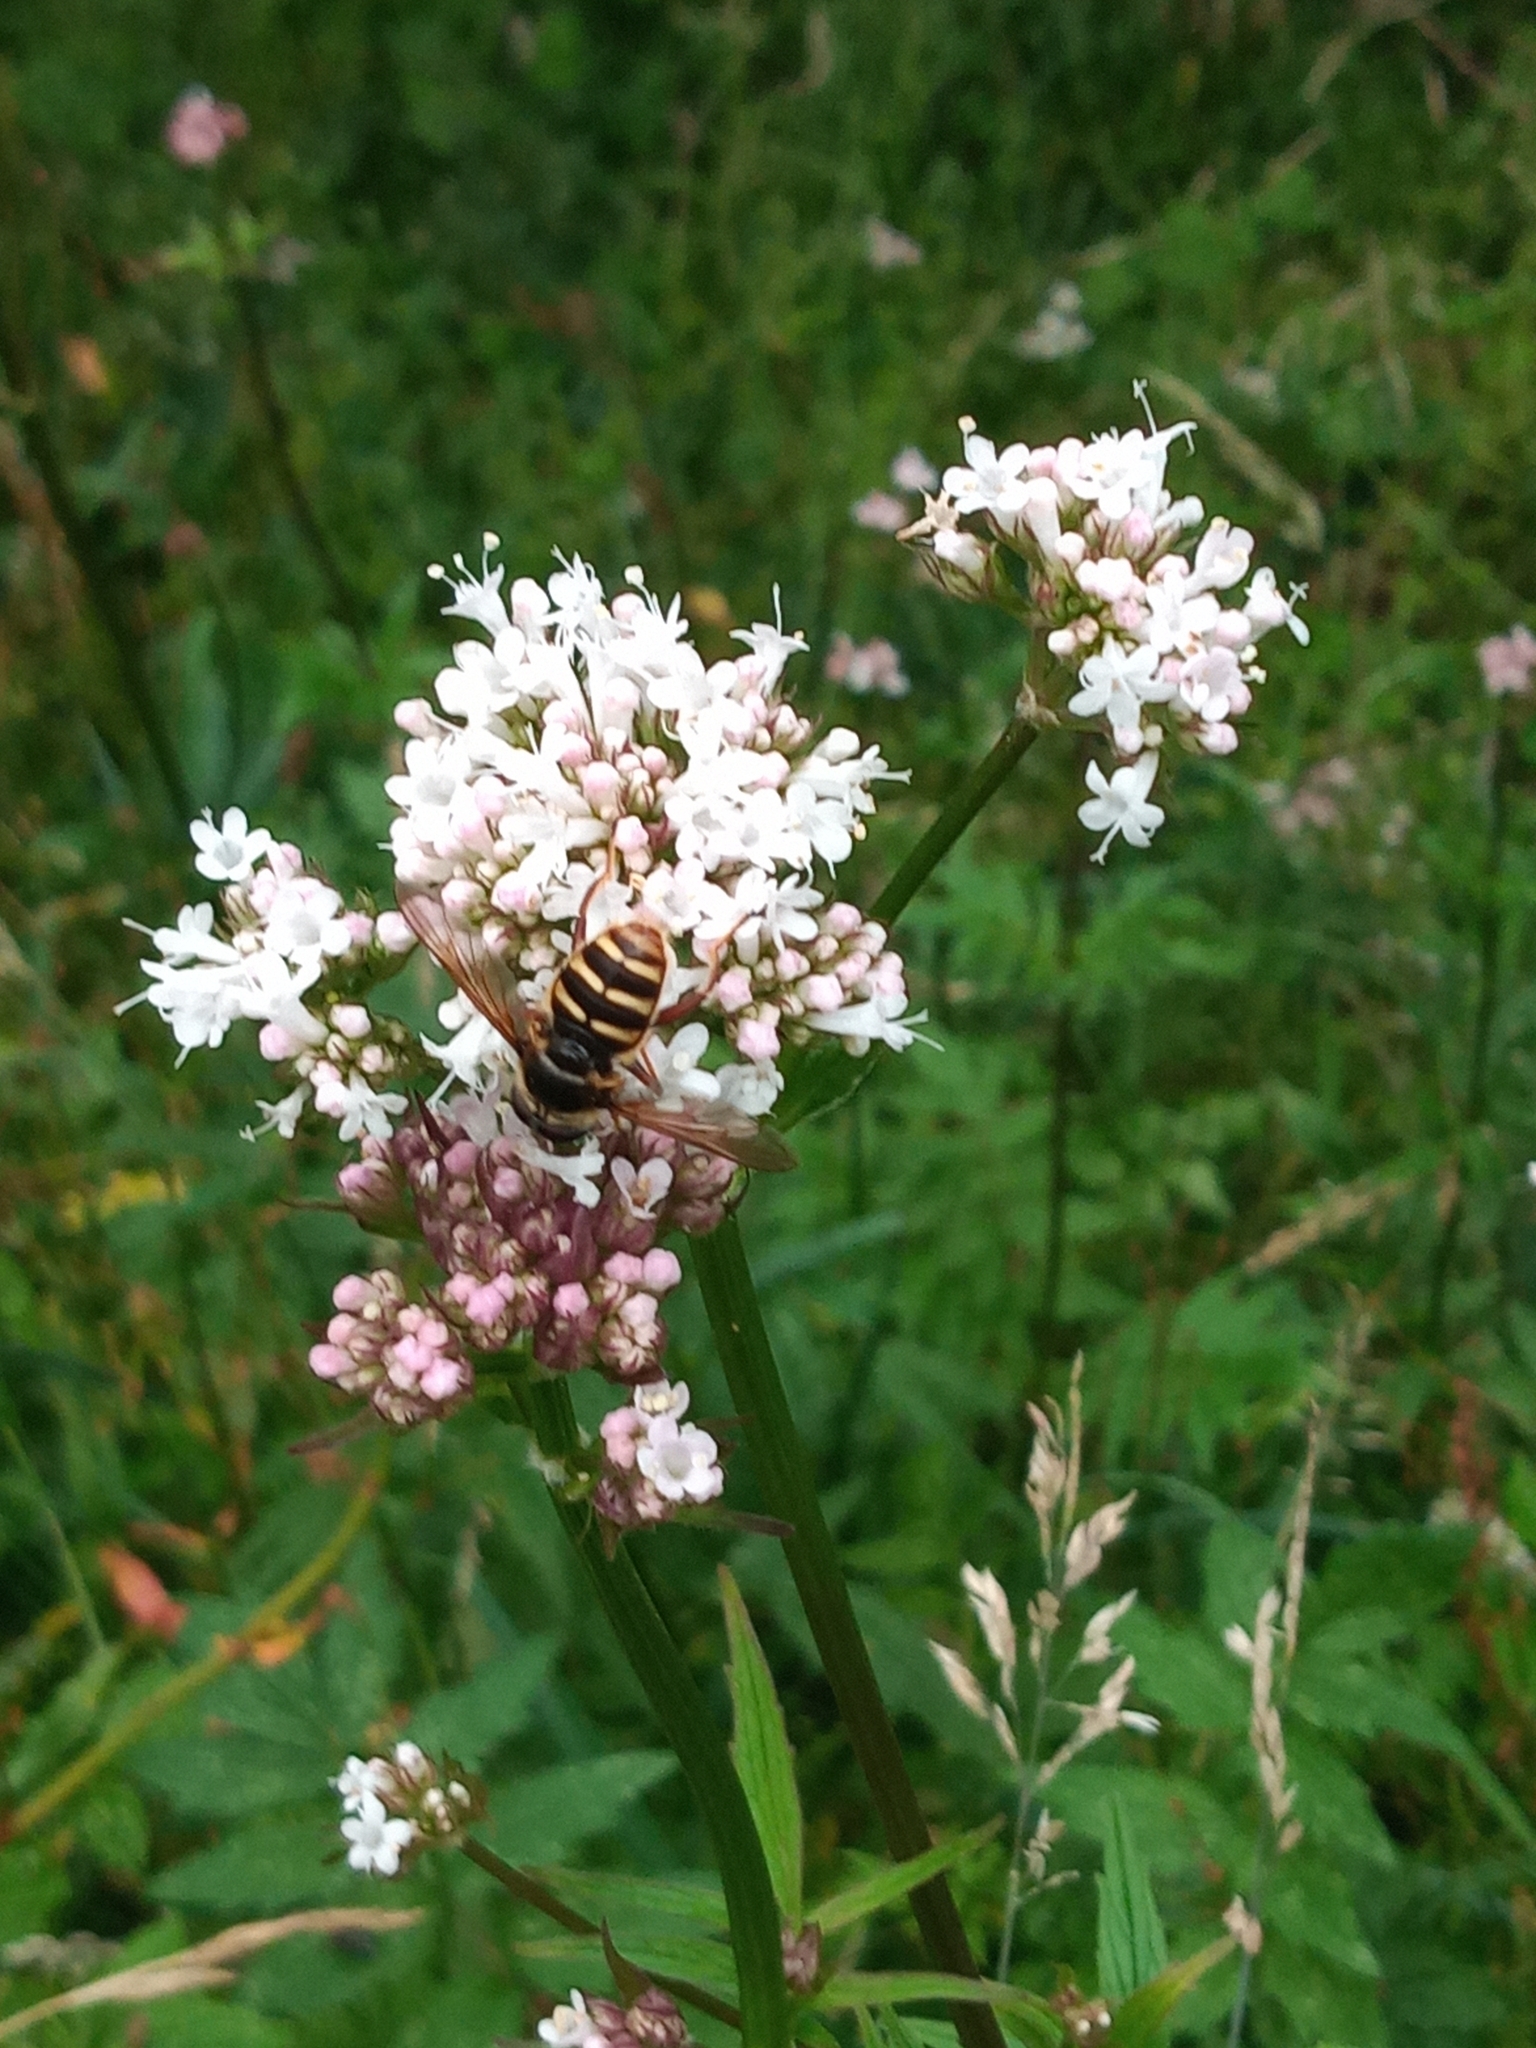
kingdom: Animalia
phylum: Arthropoda
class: Insecta
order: Diptera
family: Syrphidae
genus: Sericomyia
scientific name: Sericomyia silentis
